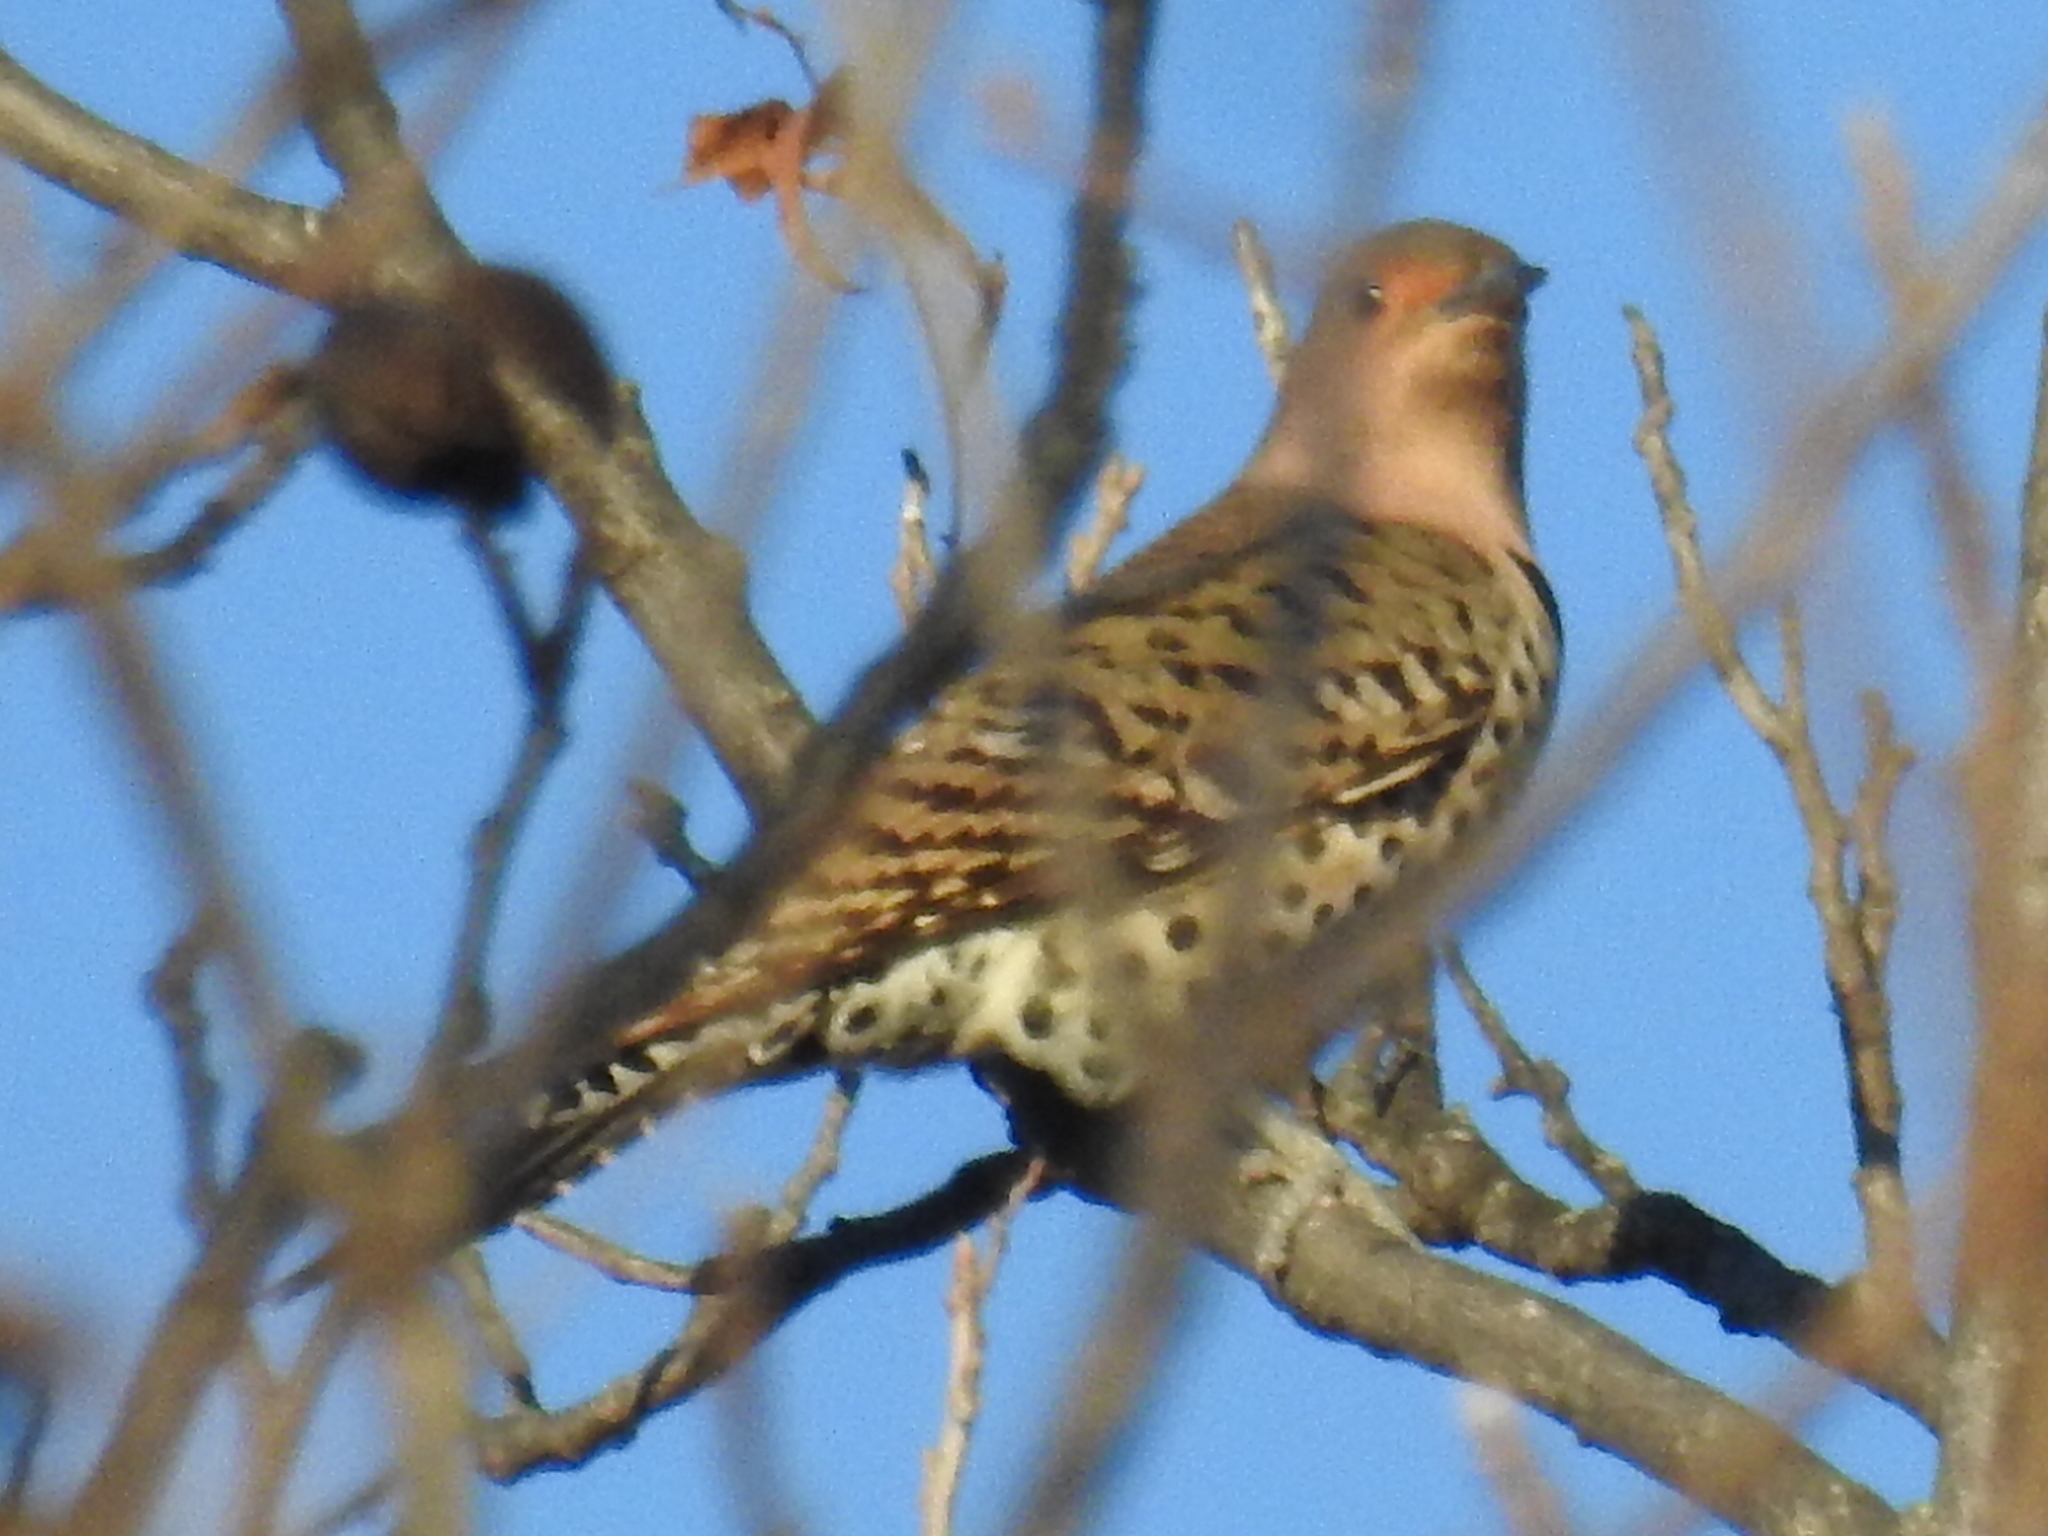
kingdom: Animalia
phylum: Chordata
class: Aves
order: Piciformes
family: Picidae
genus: Colaptes
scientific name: Colaptes auratus
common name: Northern flicker
